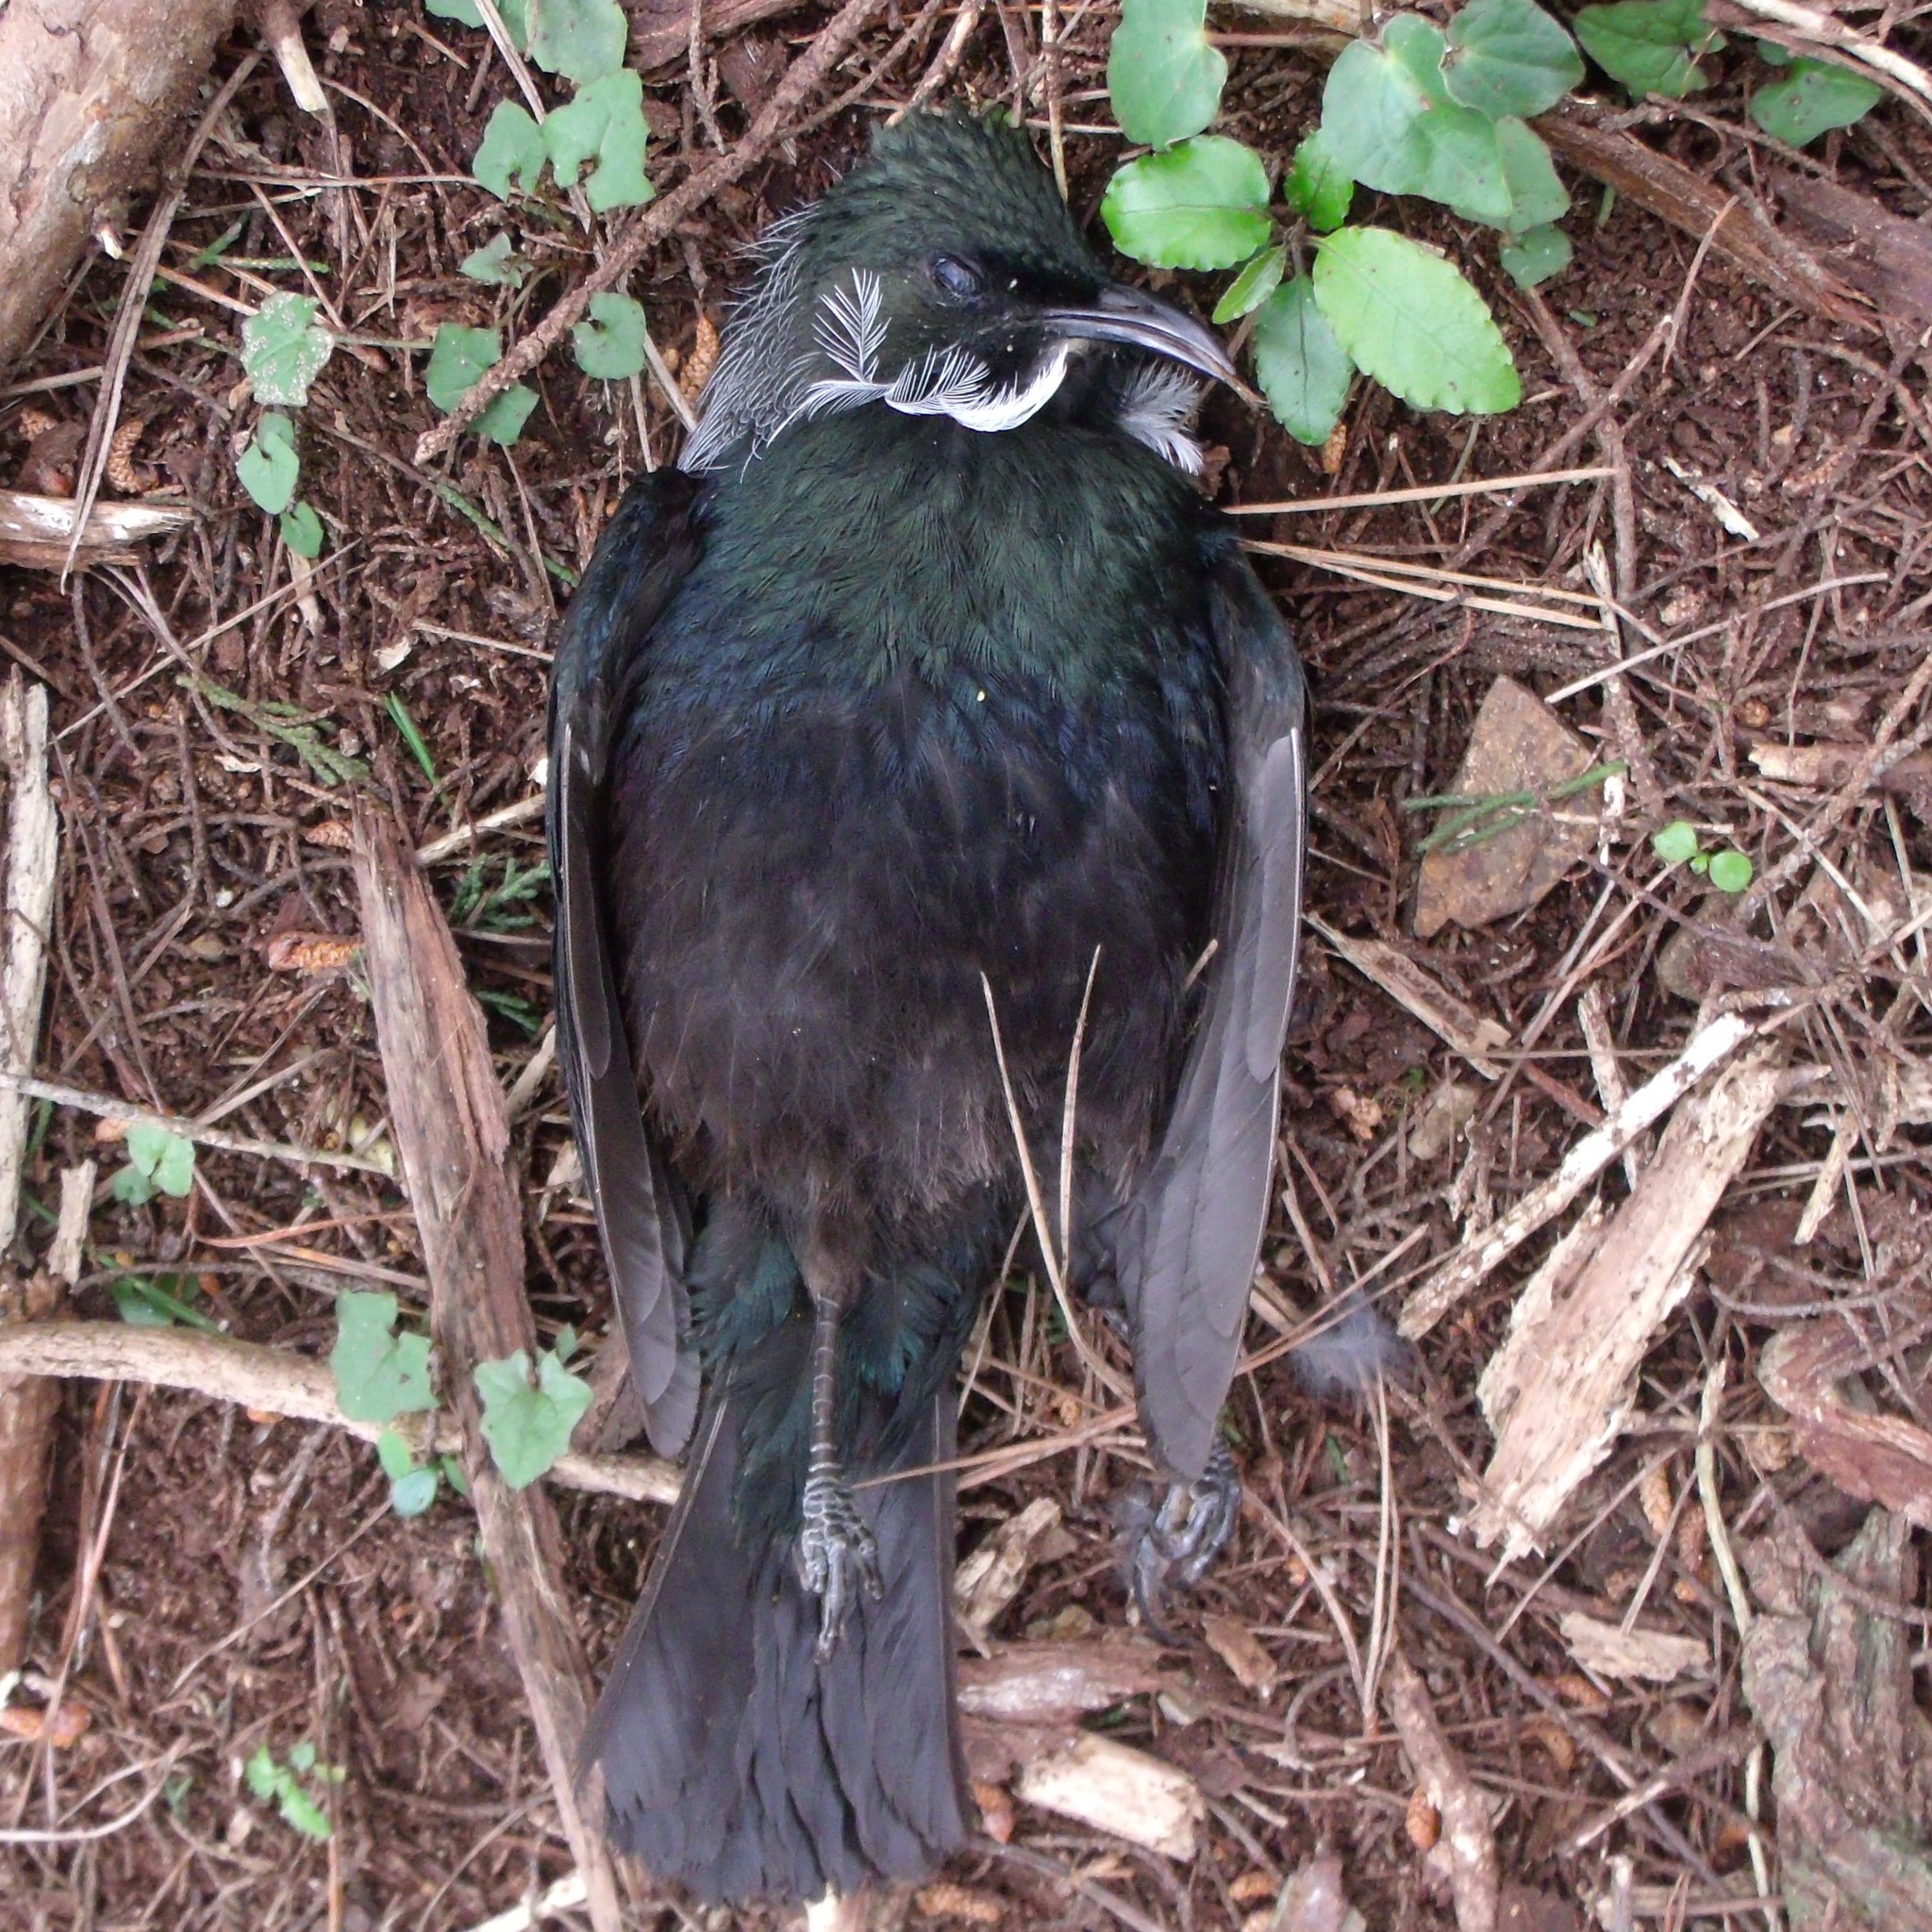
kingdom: Animalia
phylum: Chordata
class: Aves
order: Passeriformes
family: Meliphagidae
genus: Prosthemadera
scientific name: Prosthemadera novaeseelandiae
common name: Tui
